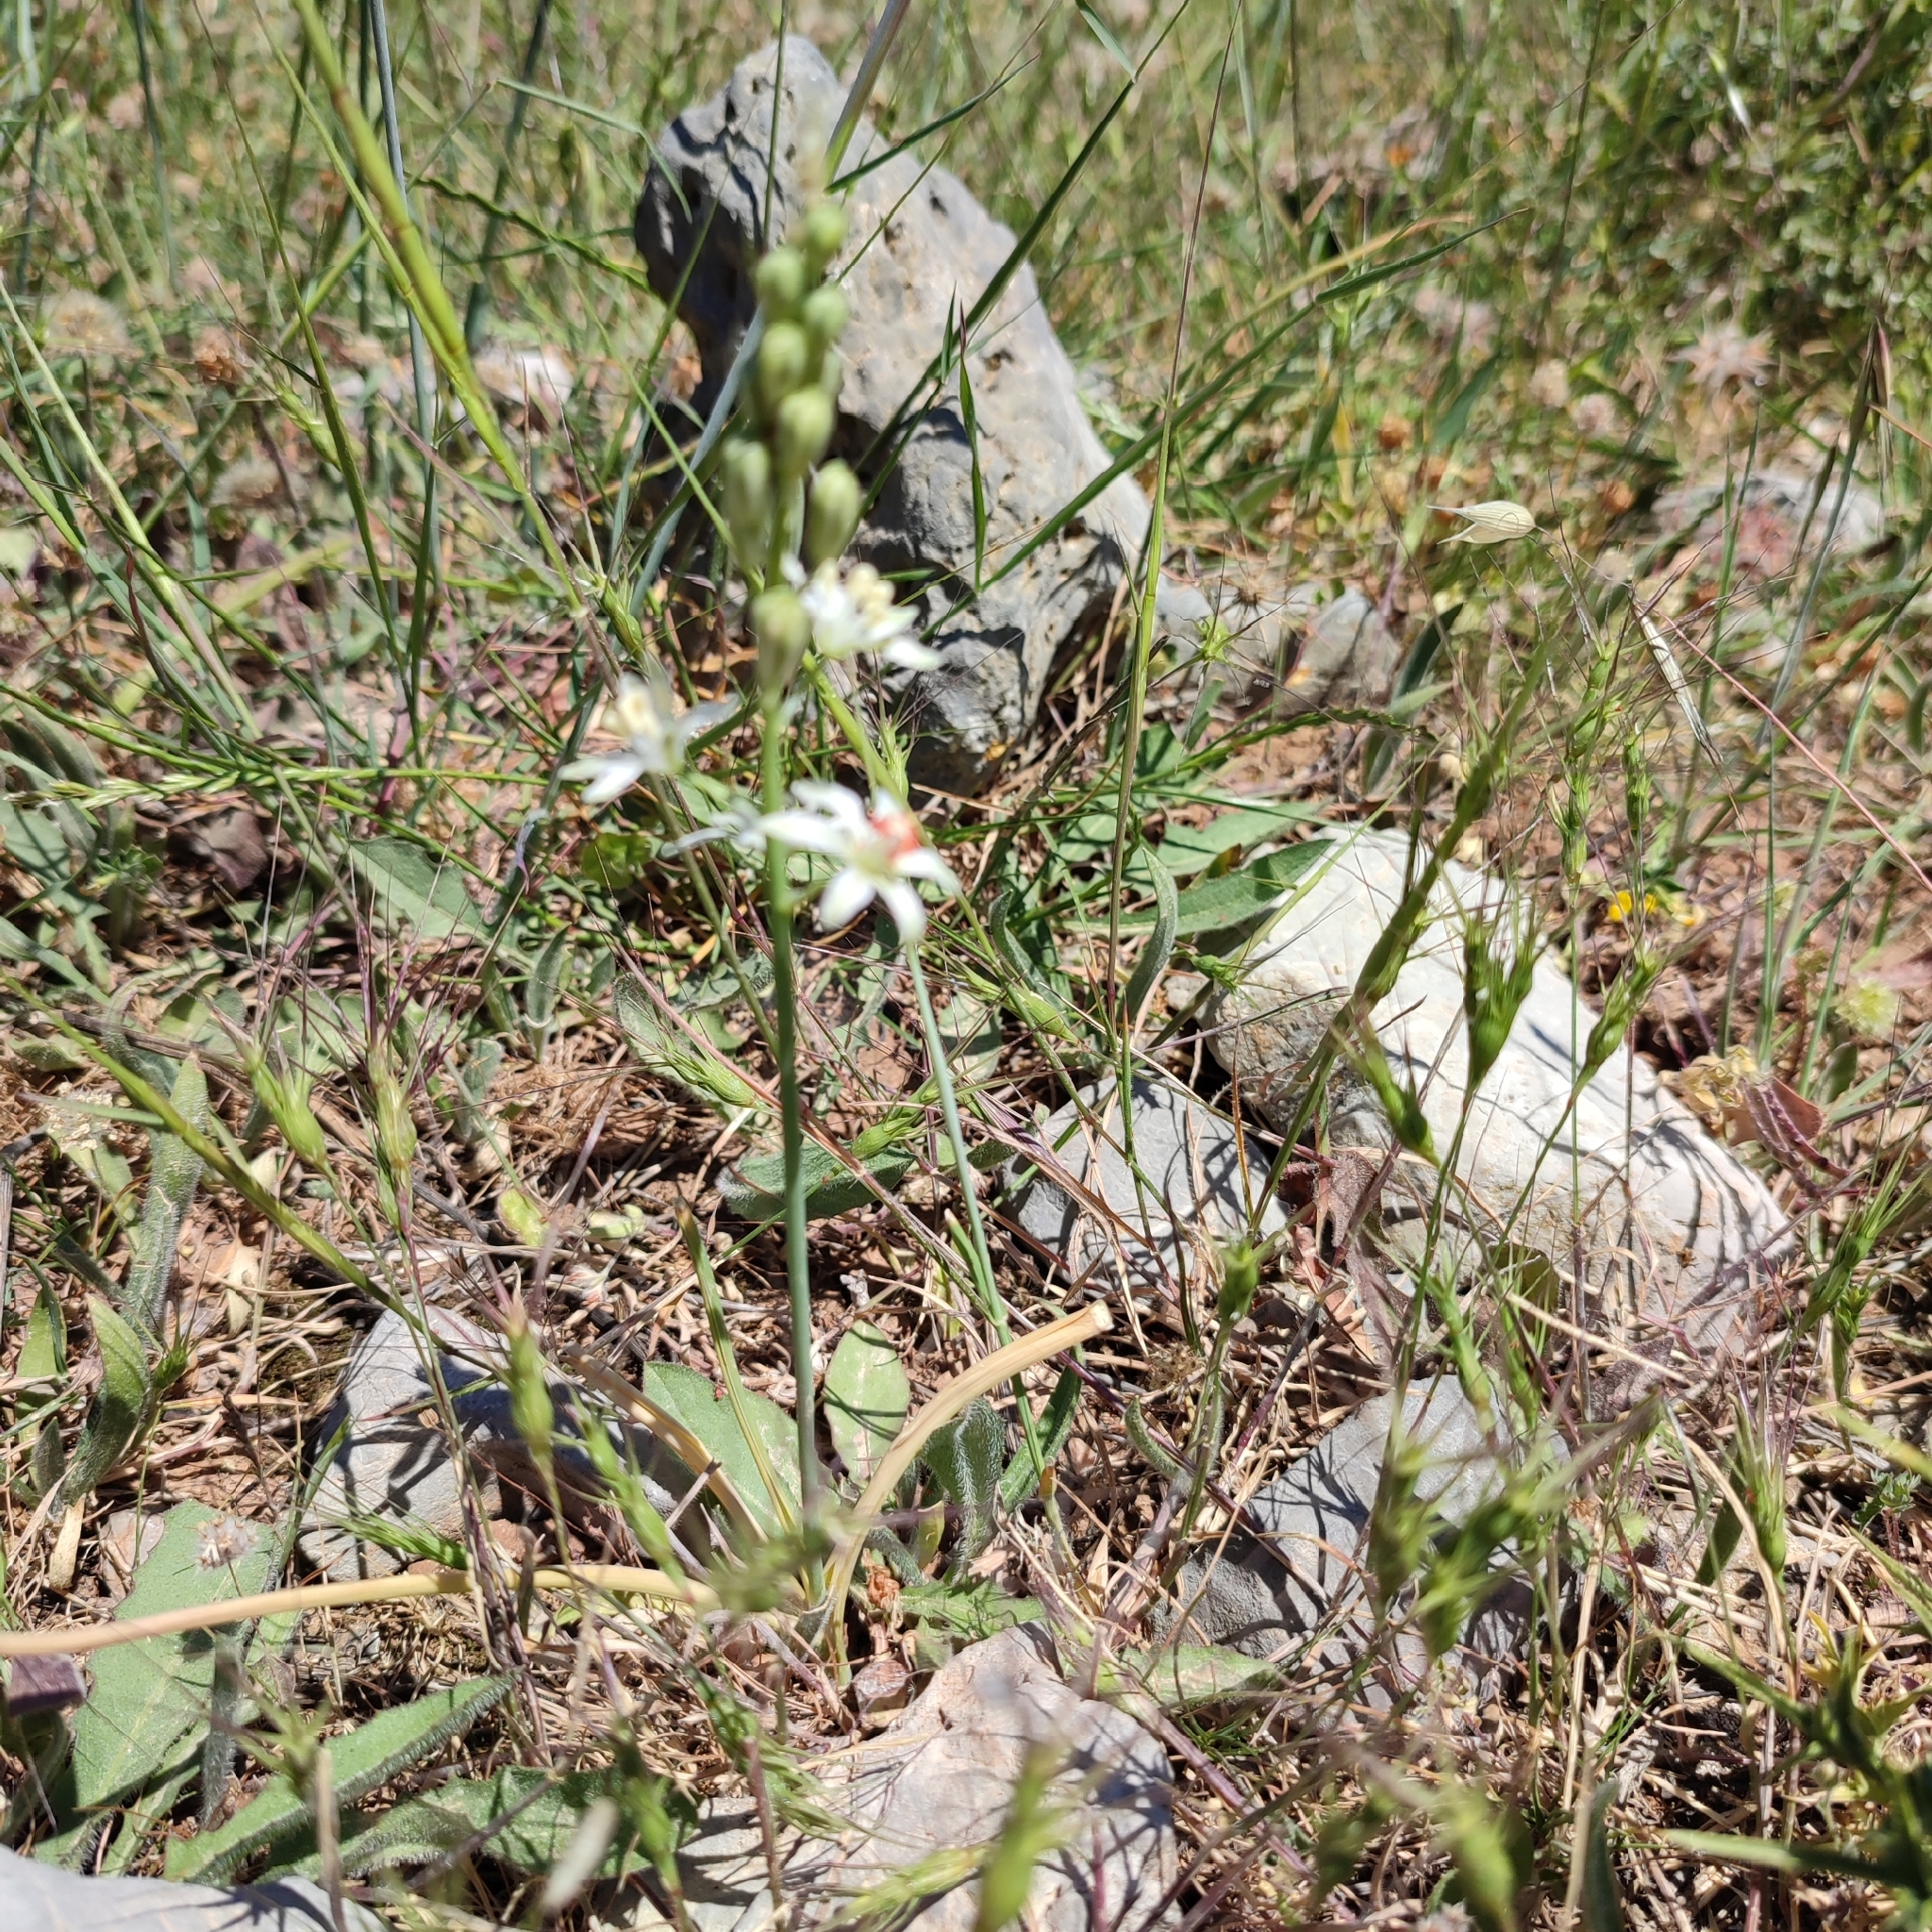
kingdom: Plantae
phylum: Tracheophyta
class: Liliopsida
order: Asparagales
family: Asparagaceae
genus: Ornithogalum
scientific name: Ornithogalum narbonense
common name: Bath-asparagus
